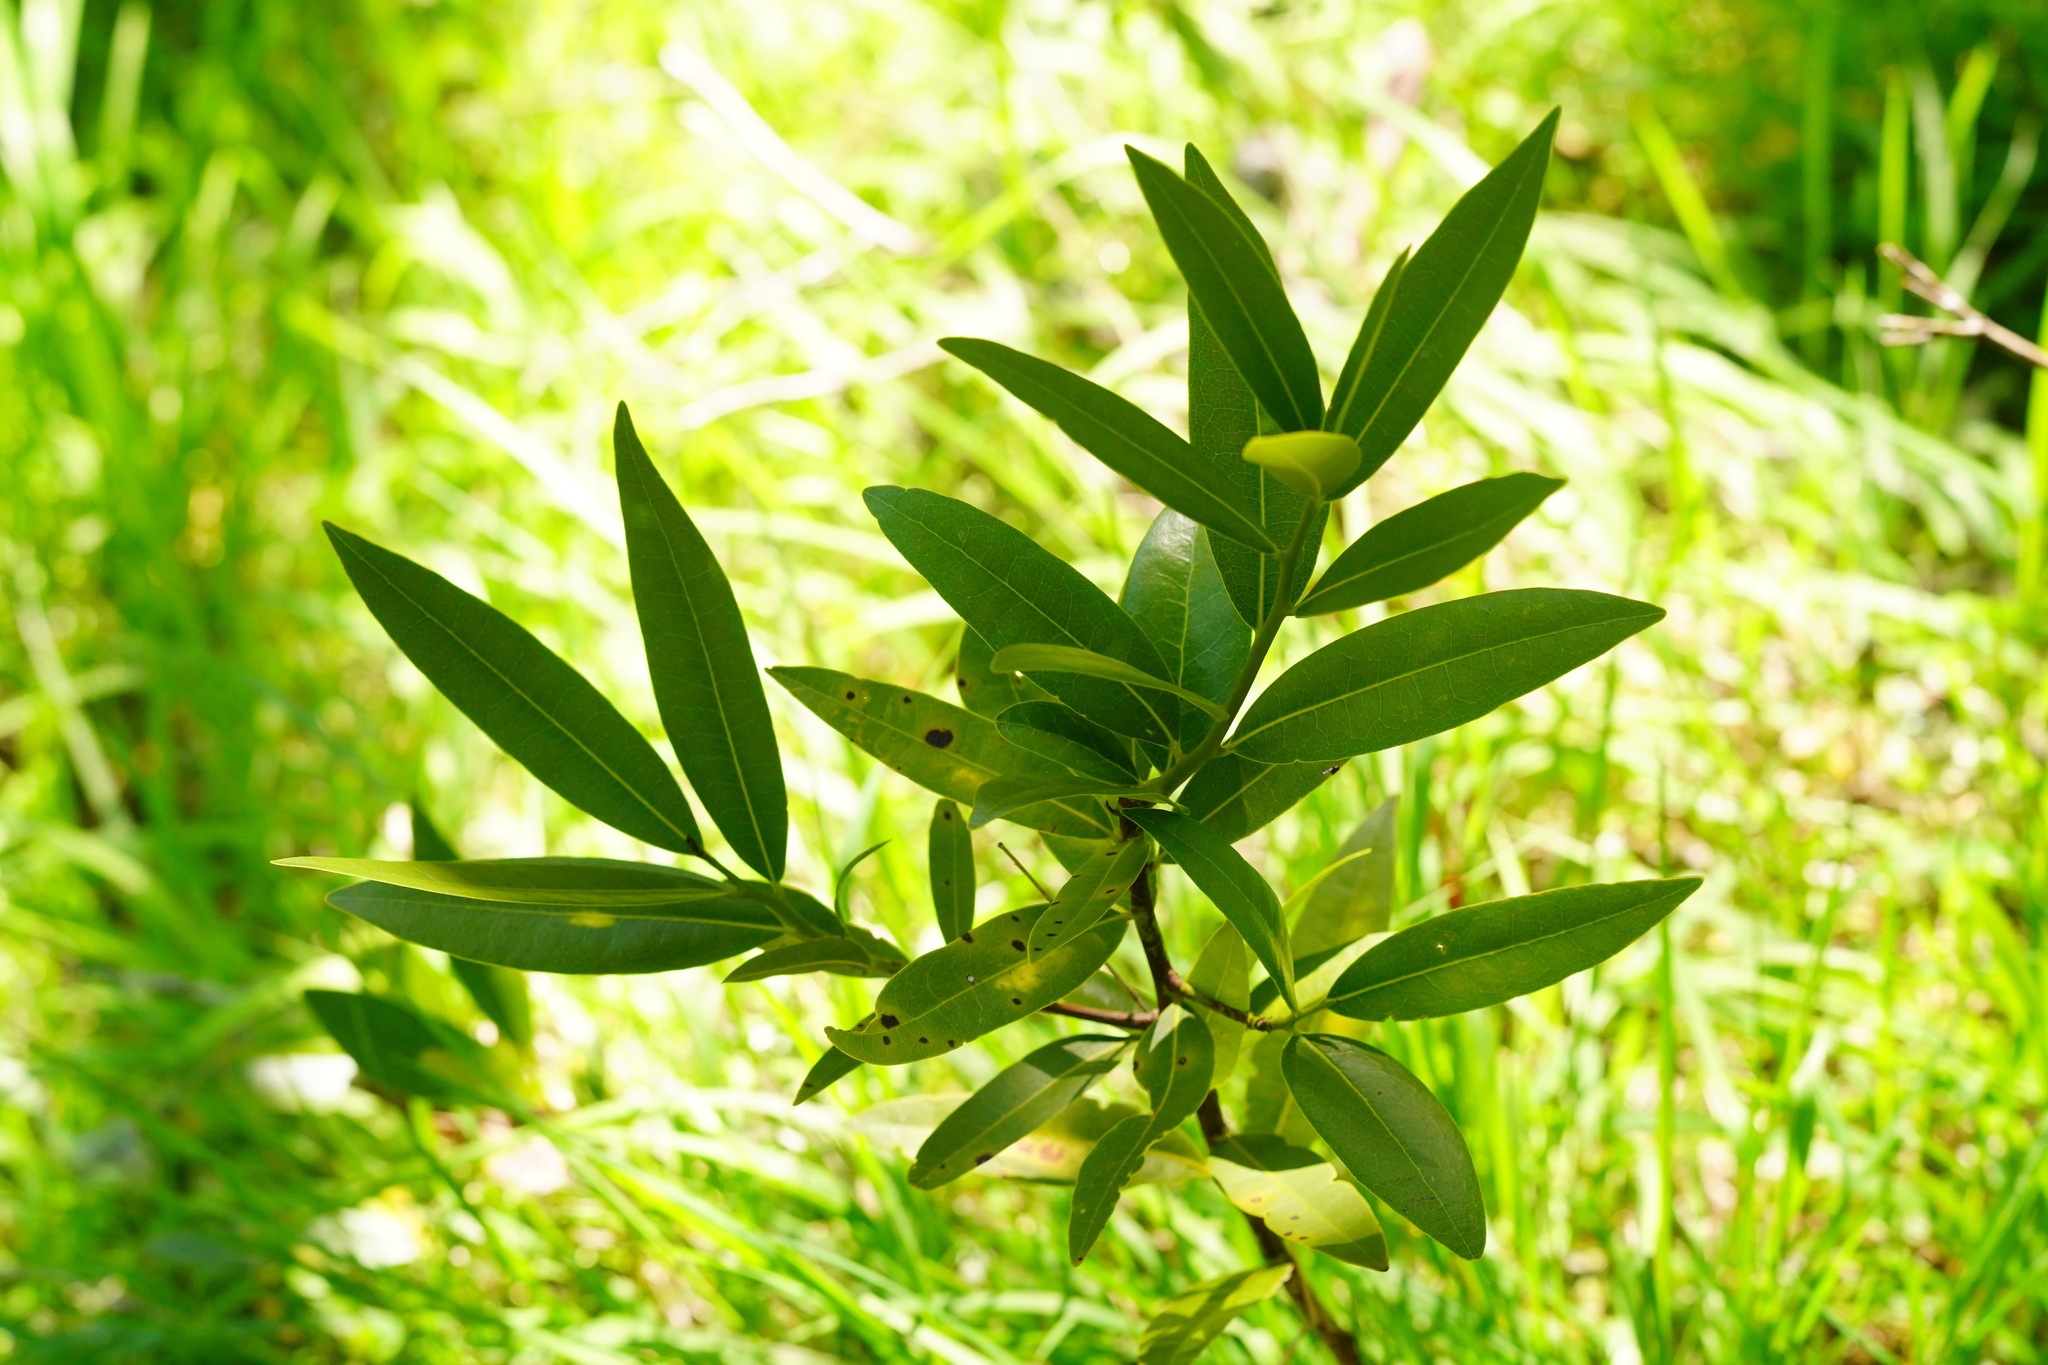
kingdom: Plantae
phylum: Tracheophyta
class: Magnoliopsida
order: Laurales
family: Lauraceae
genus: Umbellularia
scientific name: Umbellularia californica
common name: California bay
